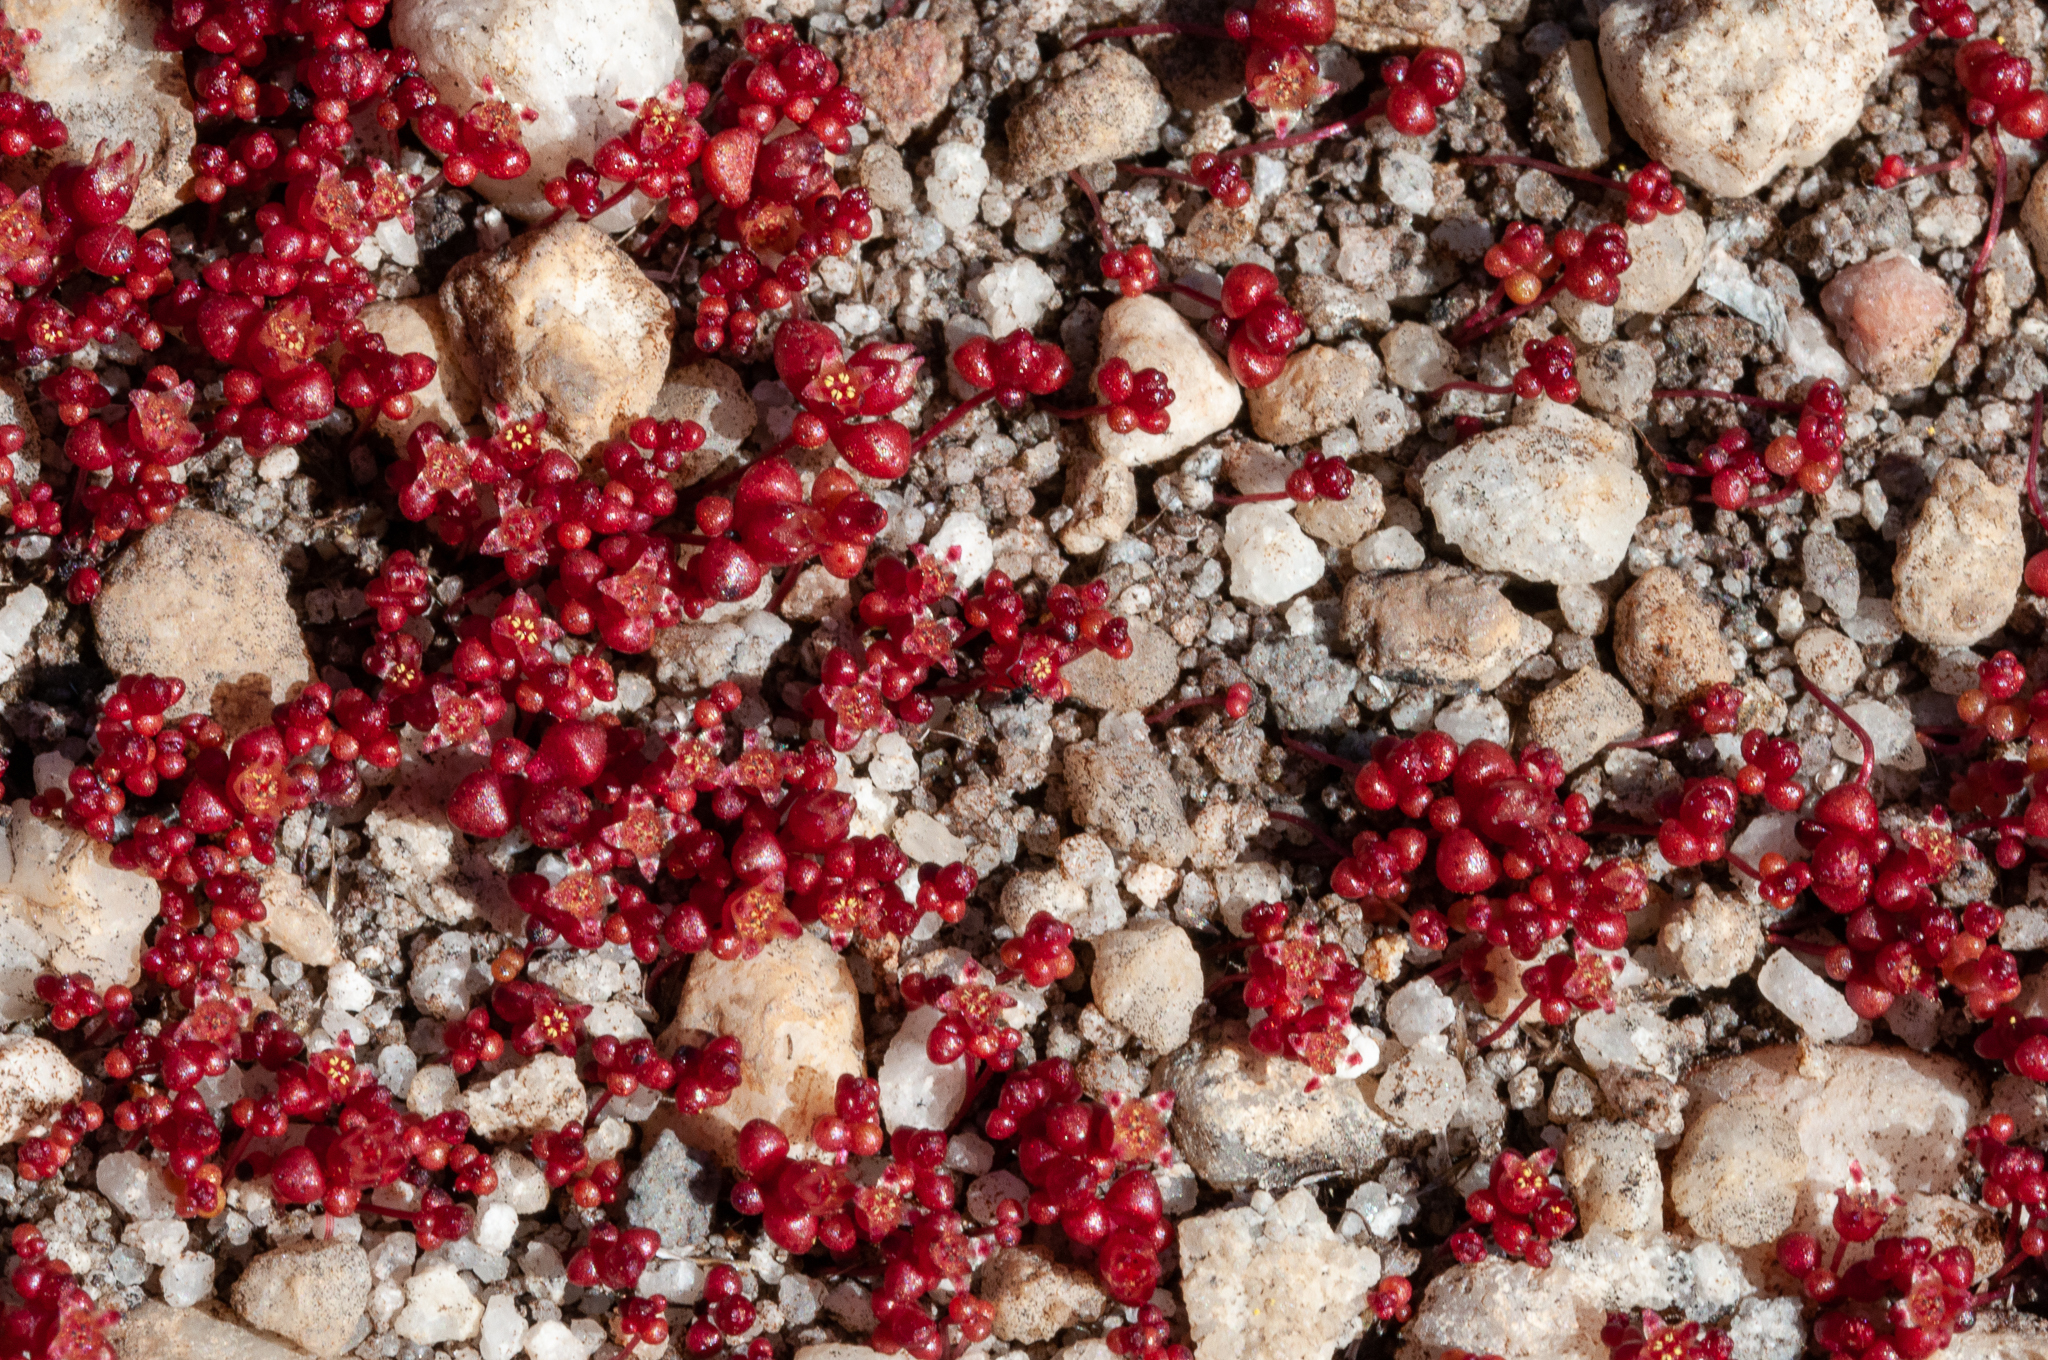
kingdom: Plantae
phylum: Tracheophyta
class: Magnoliopsida
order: Saxifragales
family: Crassulaceae
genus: Crassula
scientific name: Crassula aphylla
